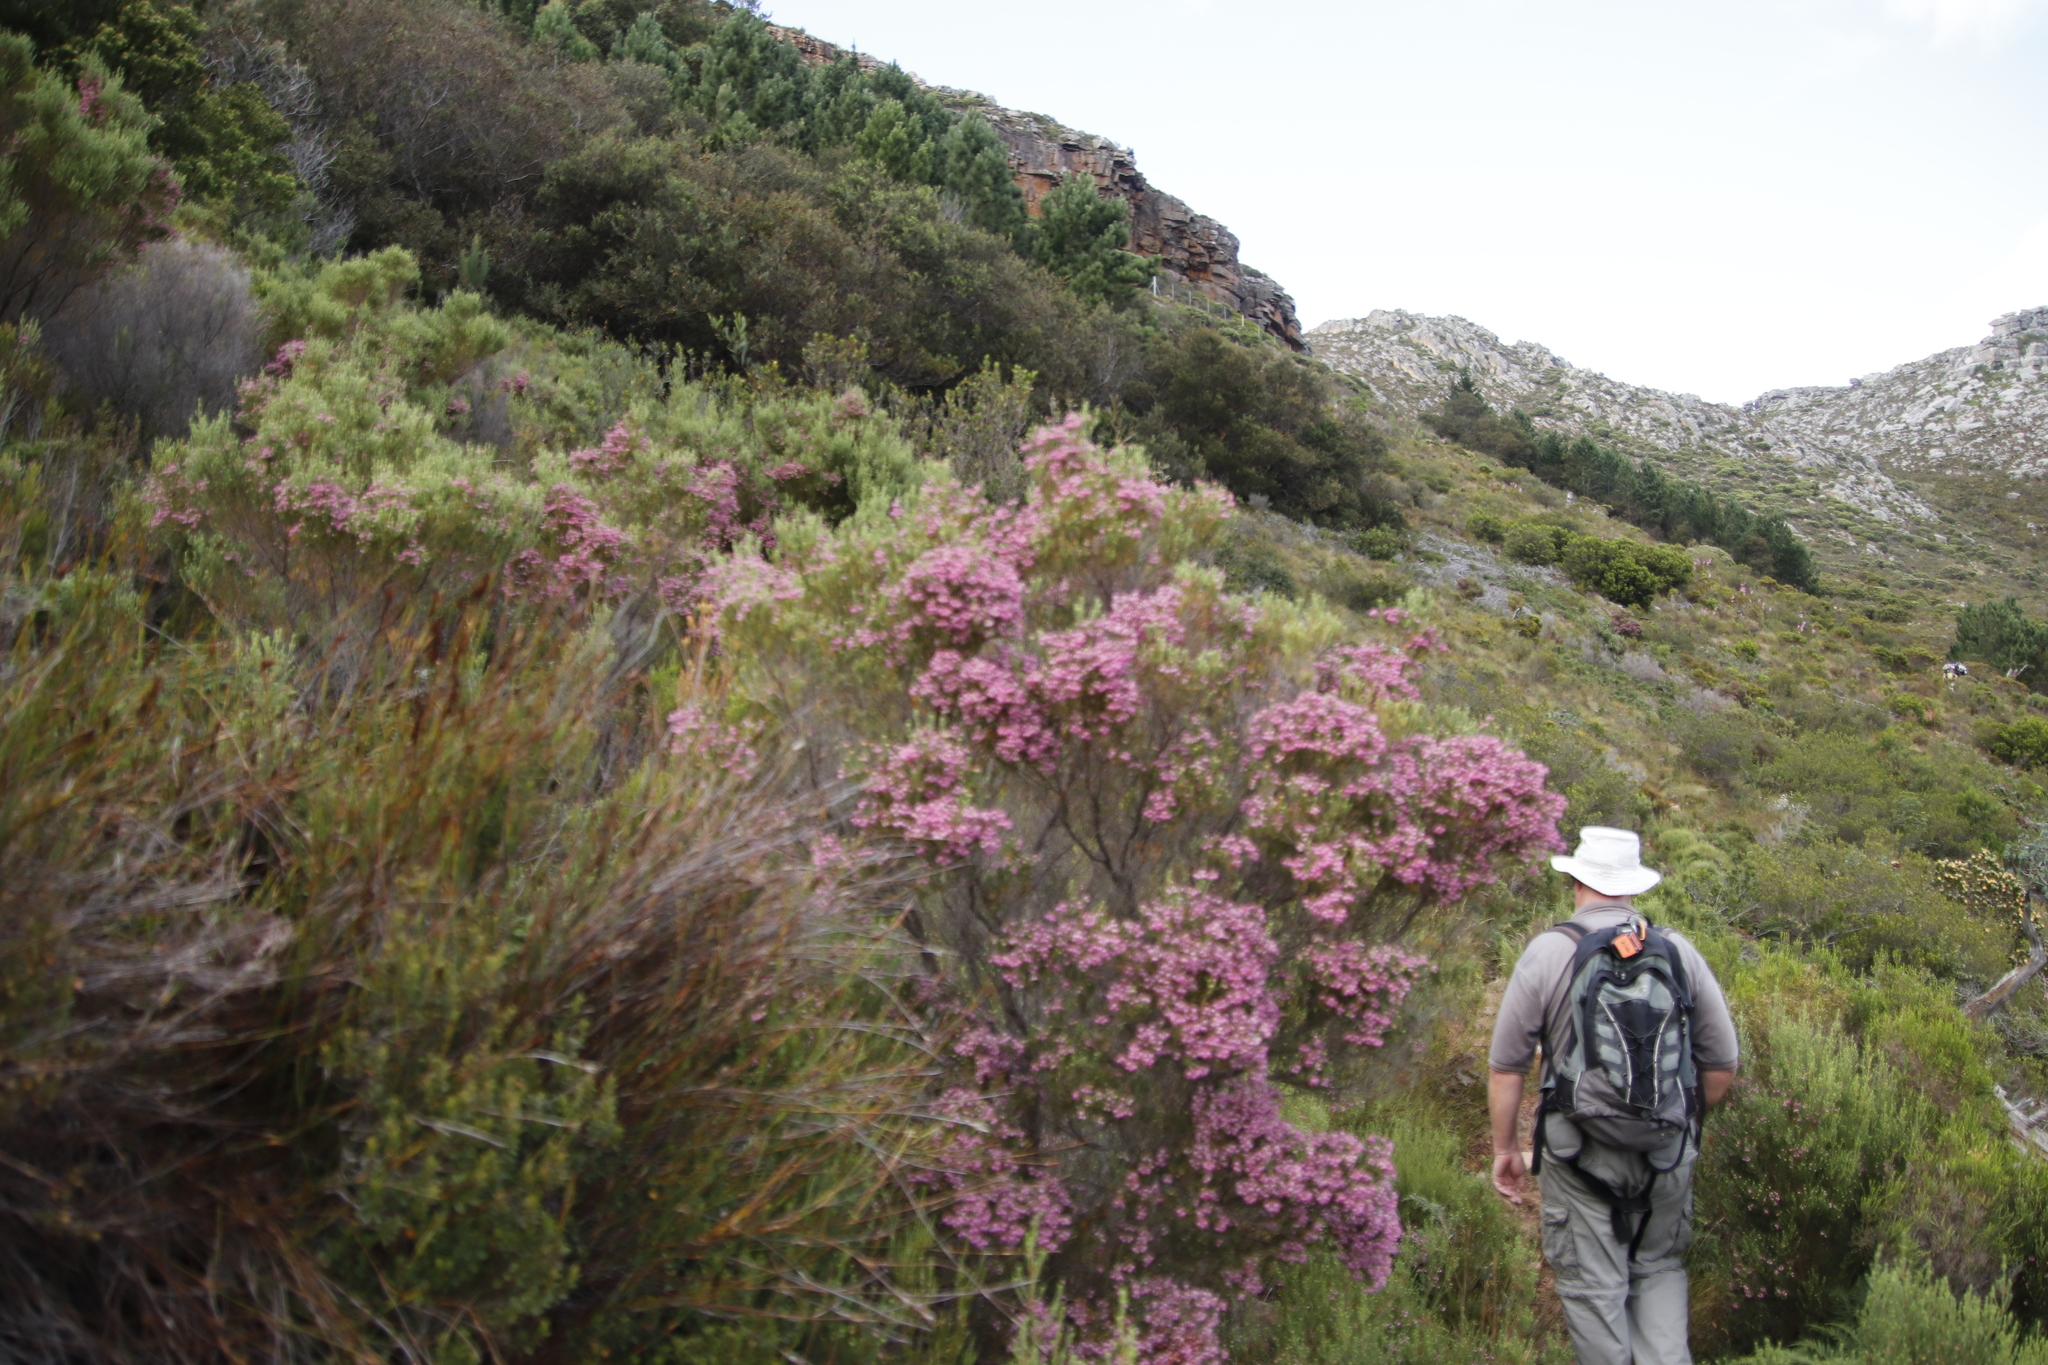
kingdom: Plantae
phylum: Tracheophyta
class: Magnoliopsida
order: Ericales
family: Ericaceae
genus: Erica
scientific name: Erica baccans
